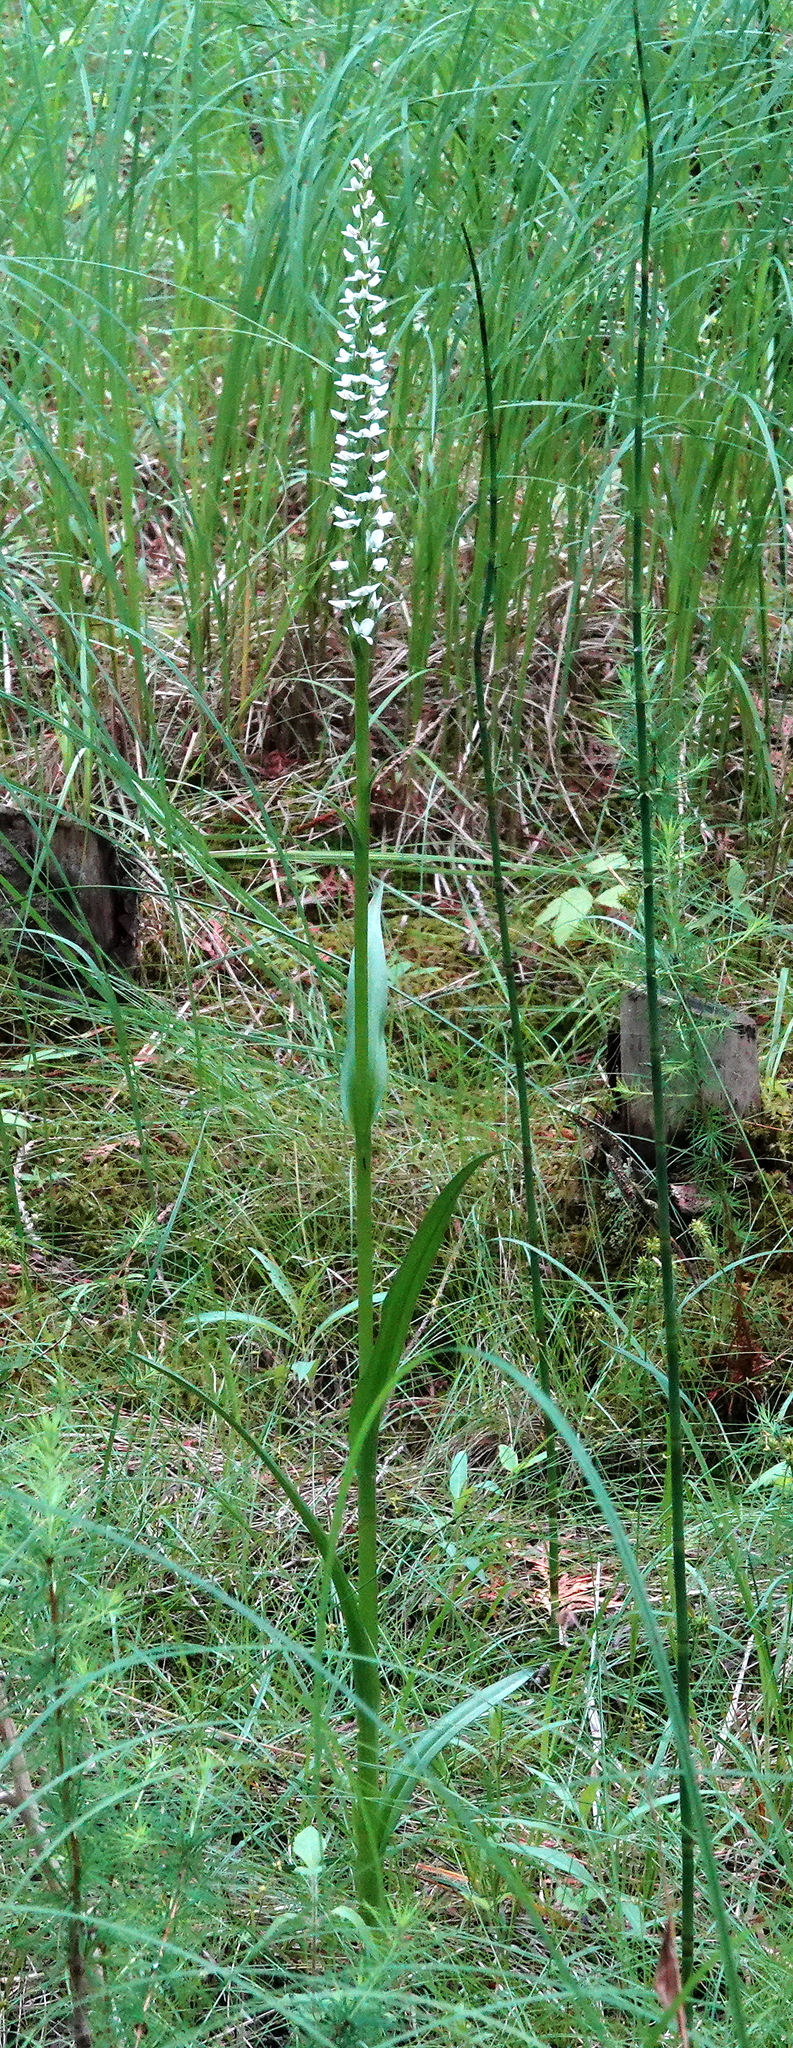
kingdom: Plantae
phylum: Tracheophyta
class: Liliopsida
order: Asparagales
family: Orchidaceae
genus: Platanthera
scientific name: Platanthera dilatata
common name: Bog candles
